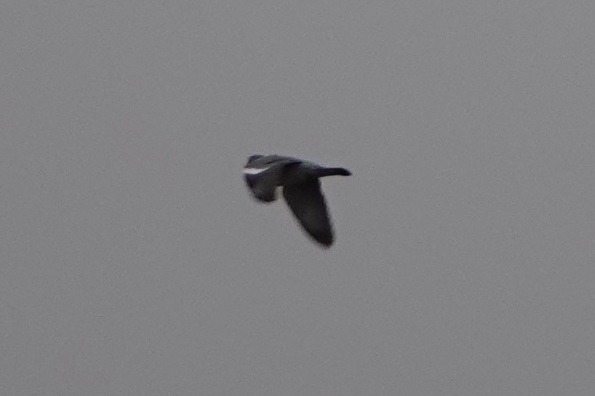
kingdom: Animalia
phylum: Chordata
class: Aves
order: Columbiformes
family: Columbidae
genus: Columba
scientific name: Columba palumbus
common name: Common wood pigeon
